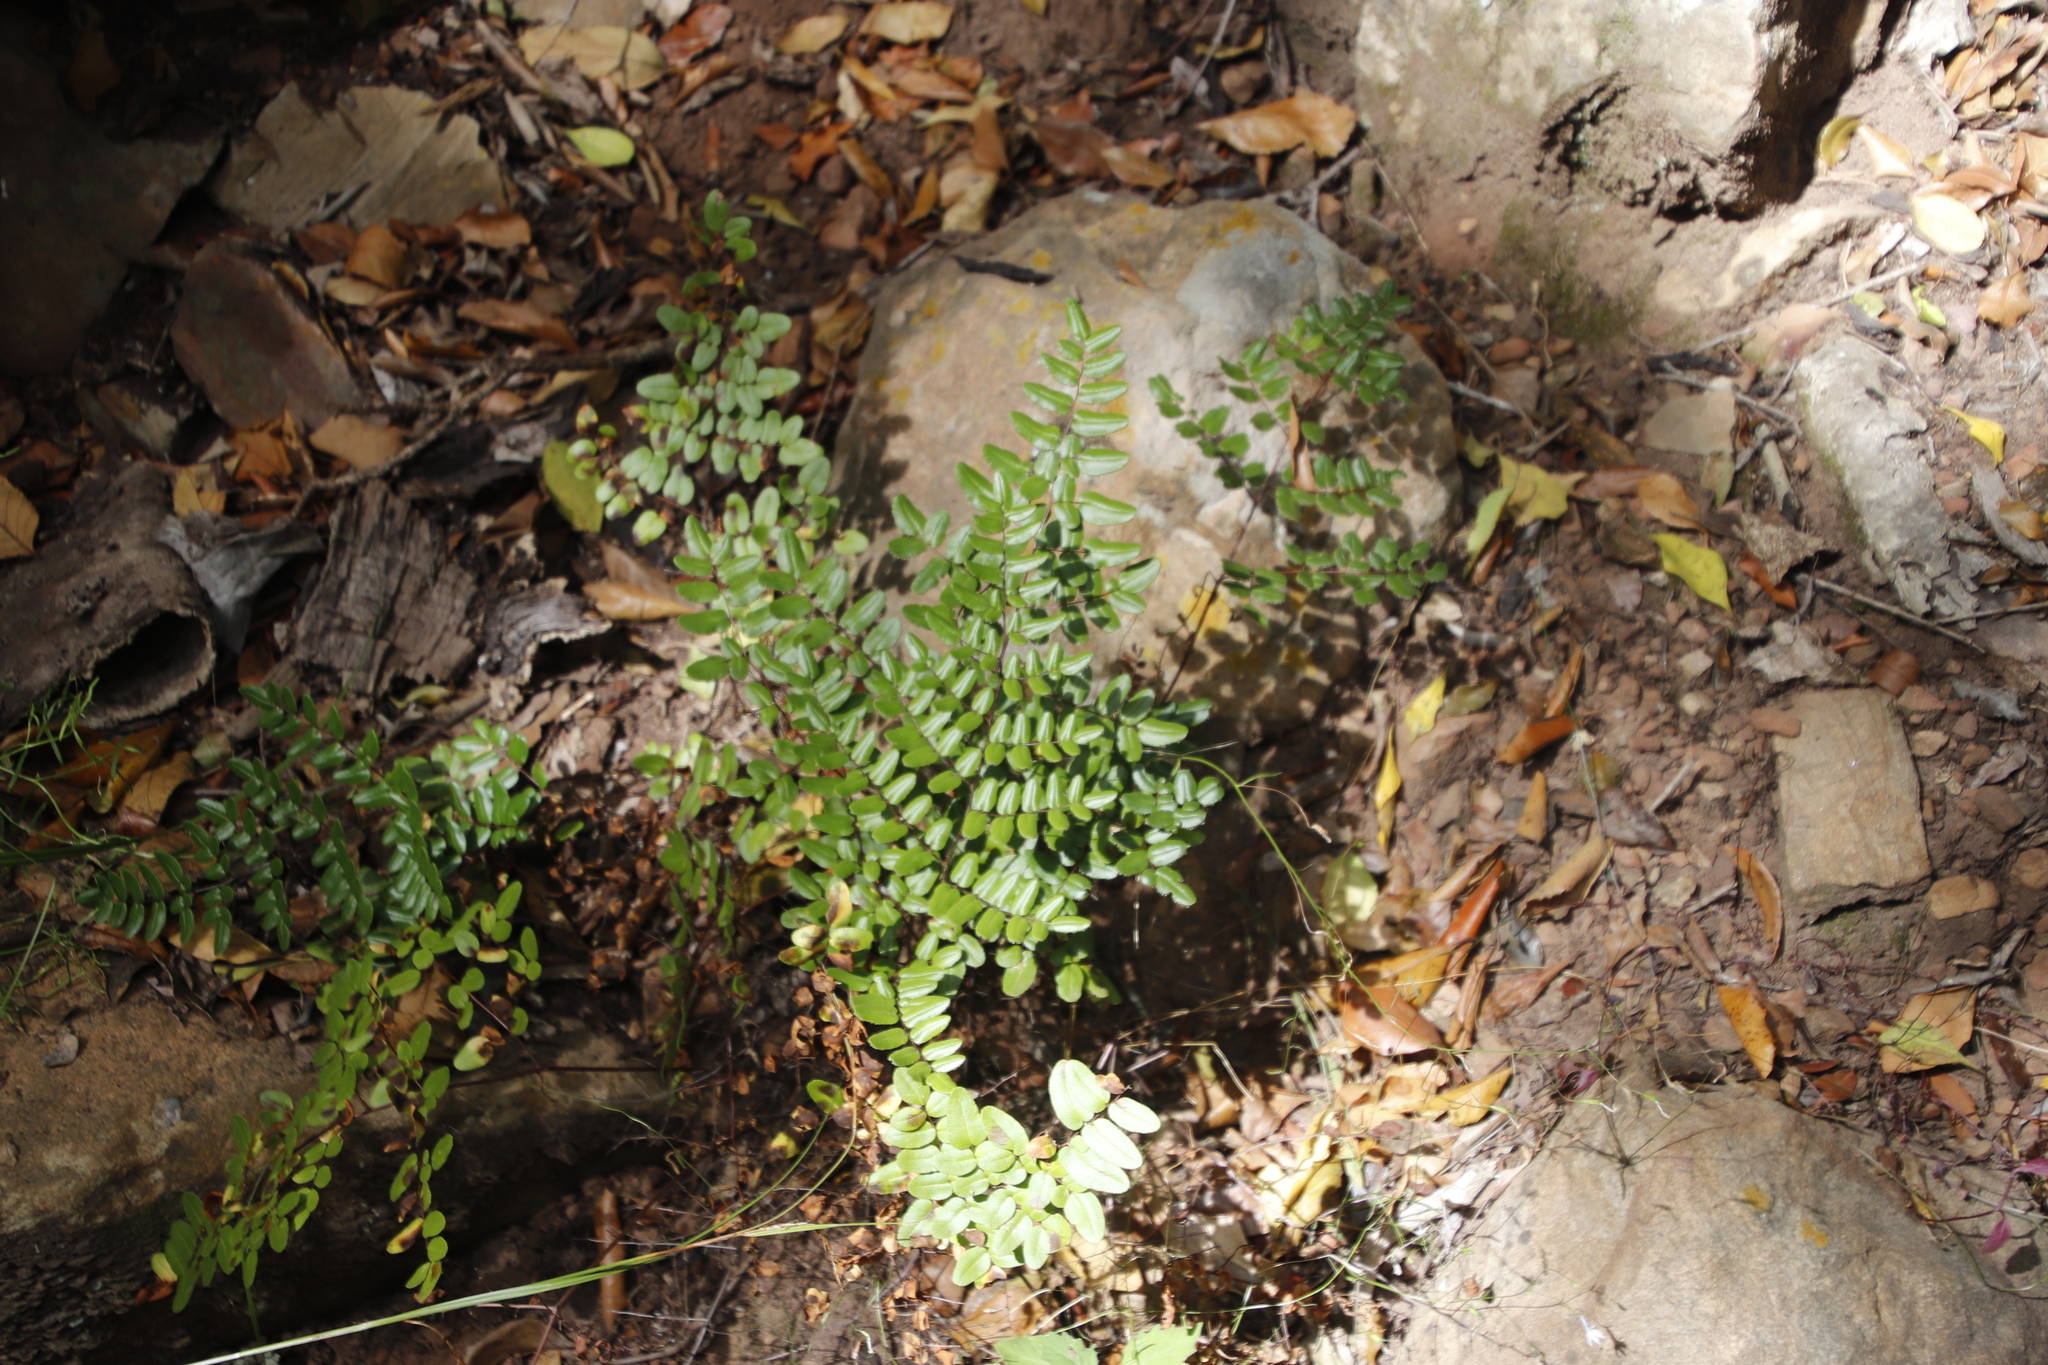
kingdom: Plantae
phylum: Tracheophyta
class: Polypodiopsida
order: Polypodiales
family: Pteridaceae
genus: Pellaea
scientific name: Pellaea pteroides
